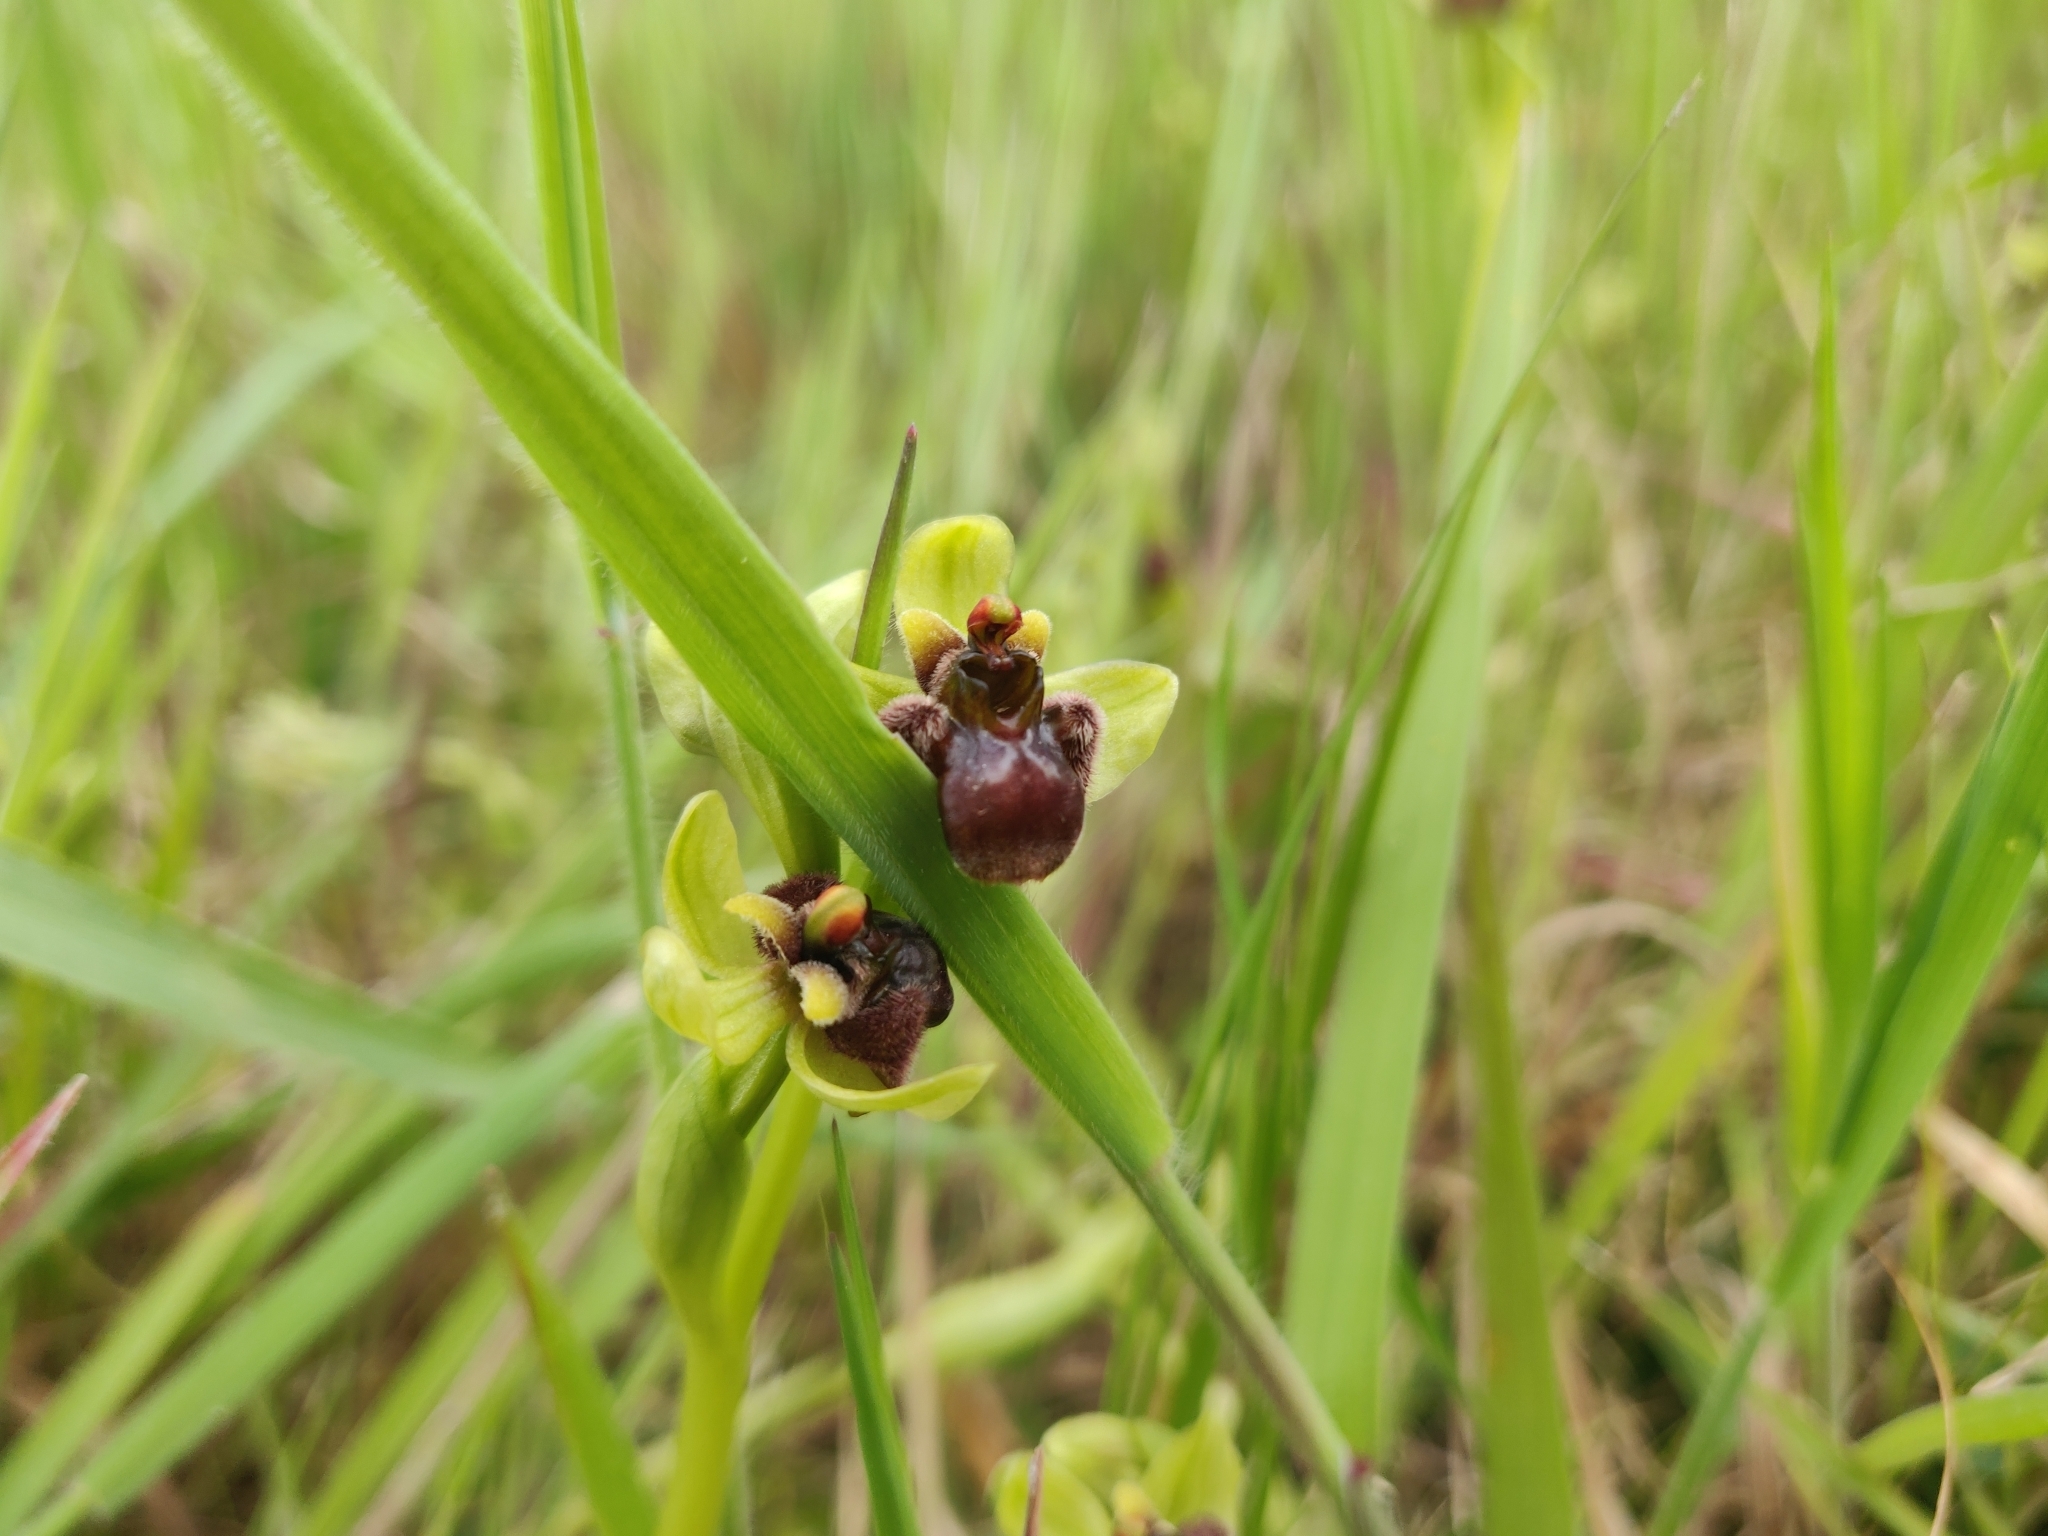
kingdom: Plantae
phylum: Tracheophyta
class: Liliopsida
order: Asparagales
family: Orchidaceae
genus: Ophrys
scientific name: Ophrys bombyliflora
